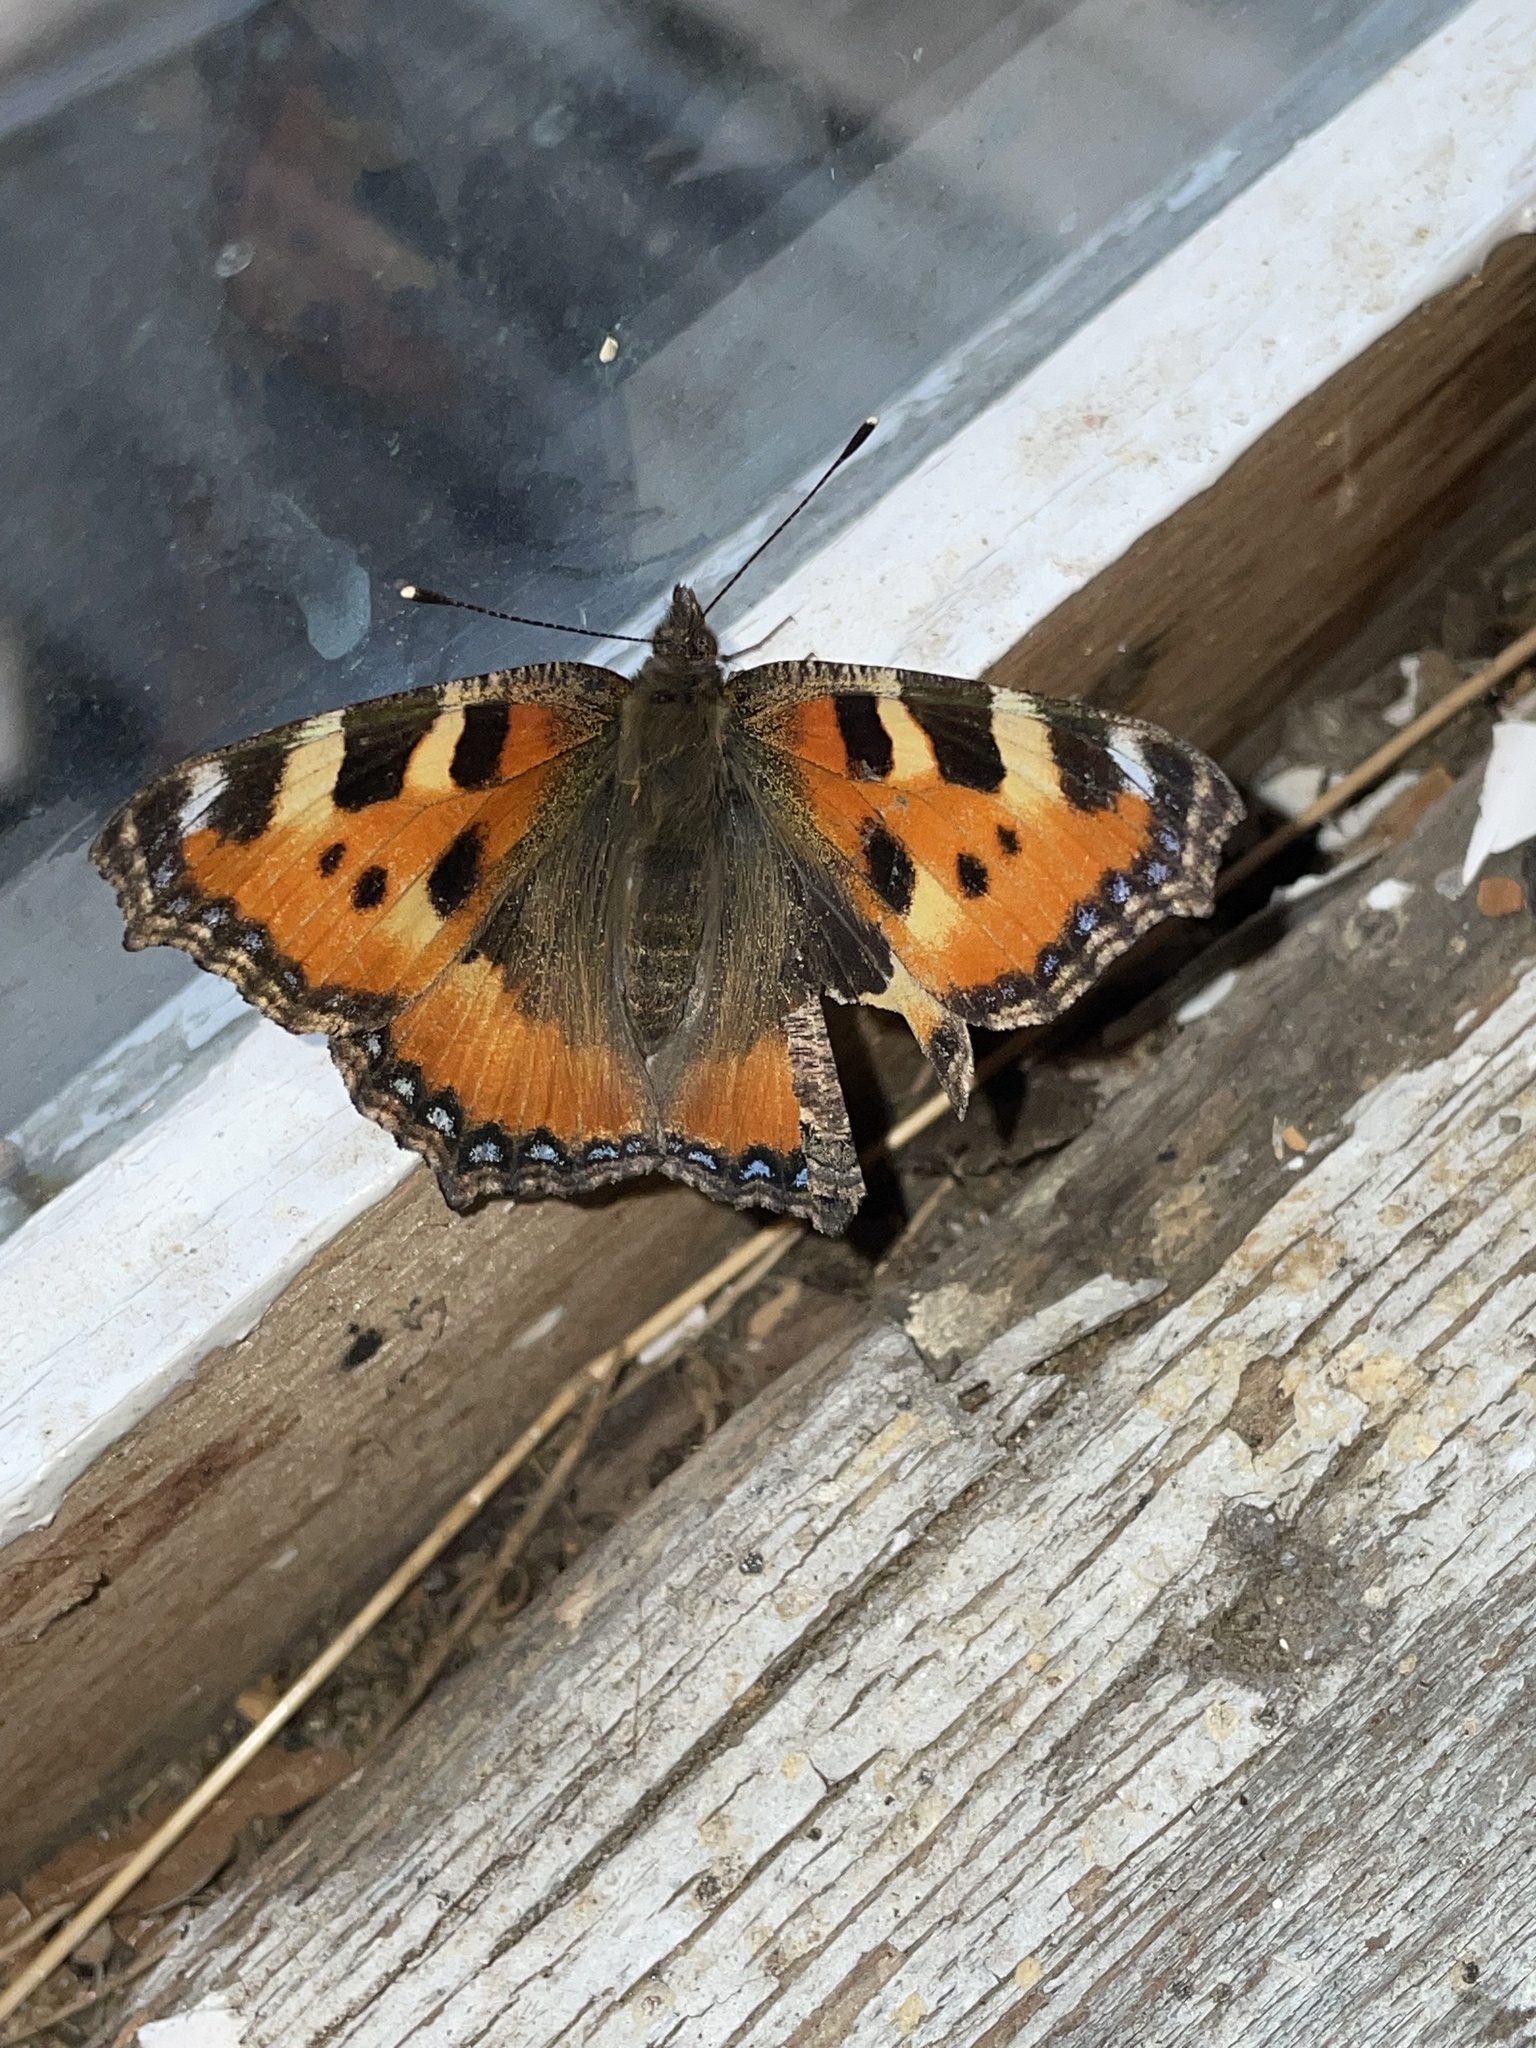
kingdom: Animalia
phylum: Arthropoda
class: Insecta
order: Lepidoptera
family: Nymphalidae
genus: Aglais
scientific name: Aglais urticae
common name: Small tortoiseshell
